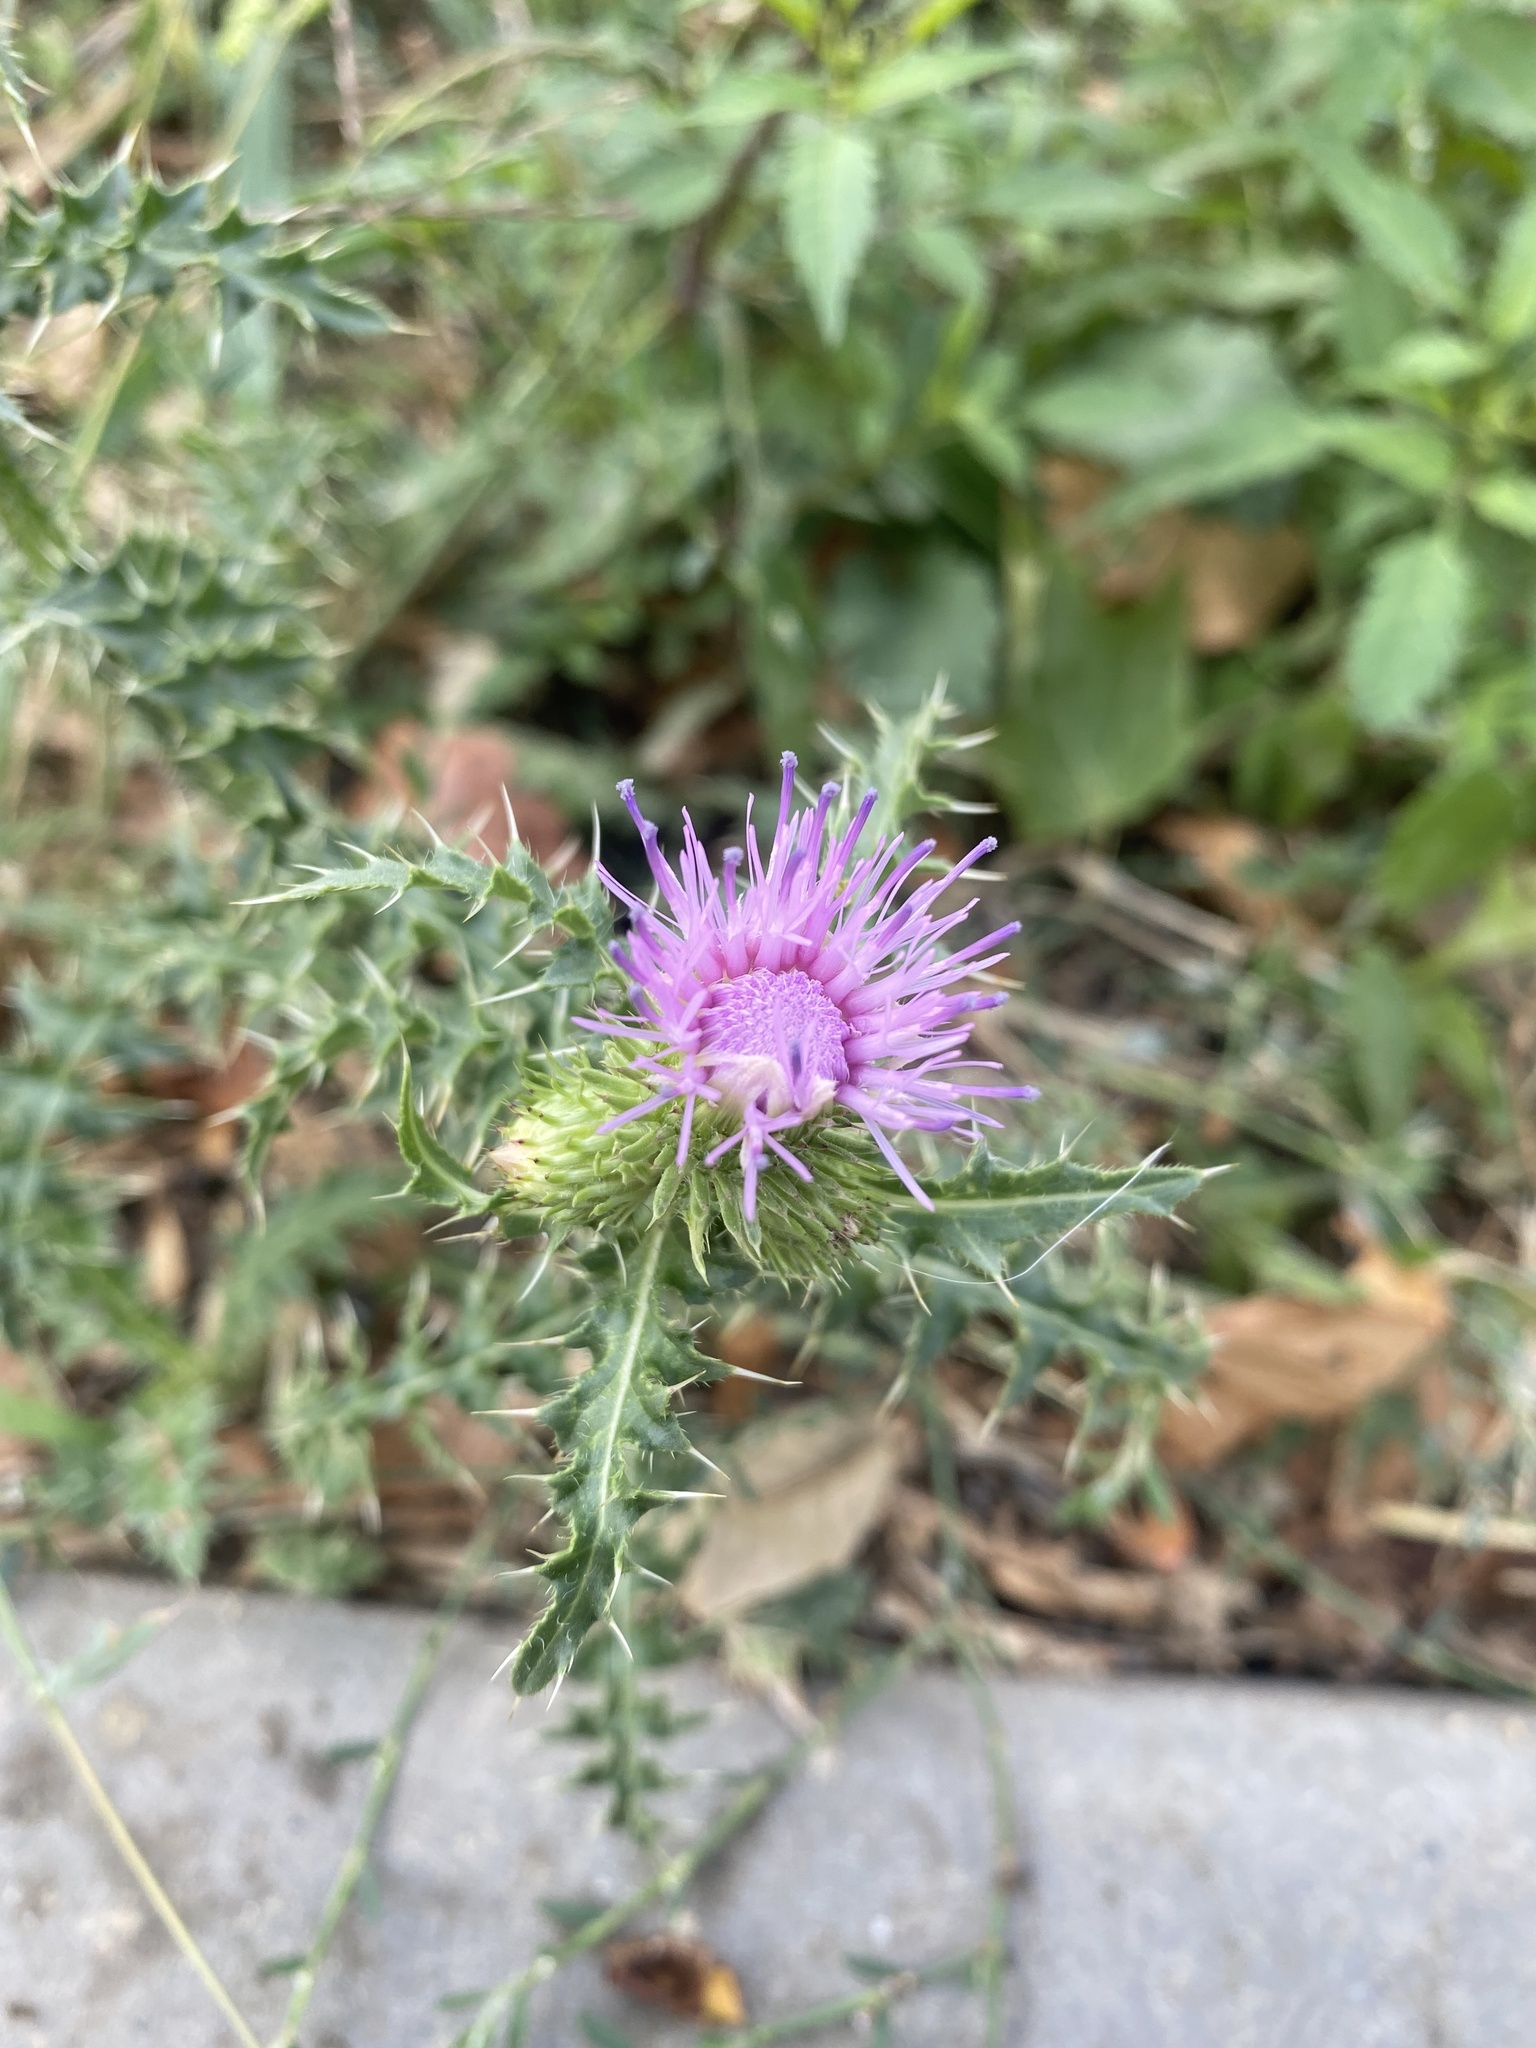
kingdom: Plantae
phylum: Tracheophyta
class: Magnoliopsida
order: Asterales
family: Asteraceae
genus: Carduus
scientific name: Carduus acanthoides
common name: Plumeless thistle
